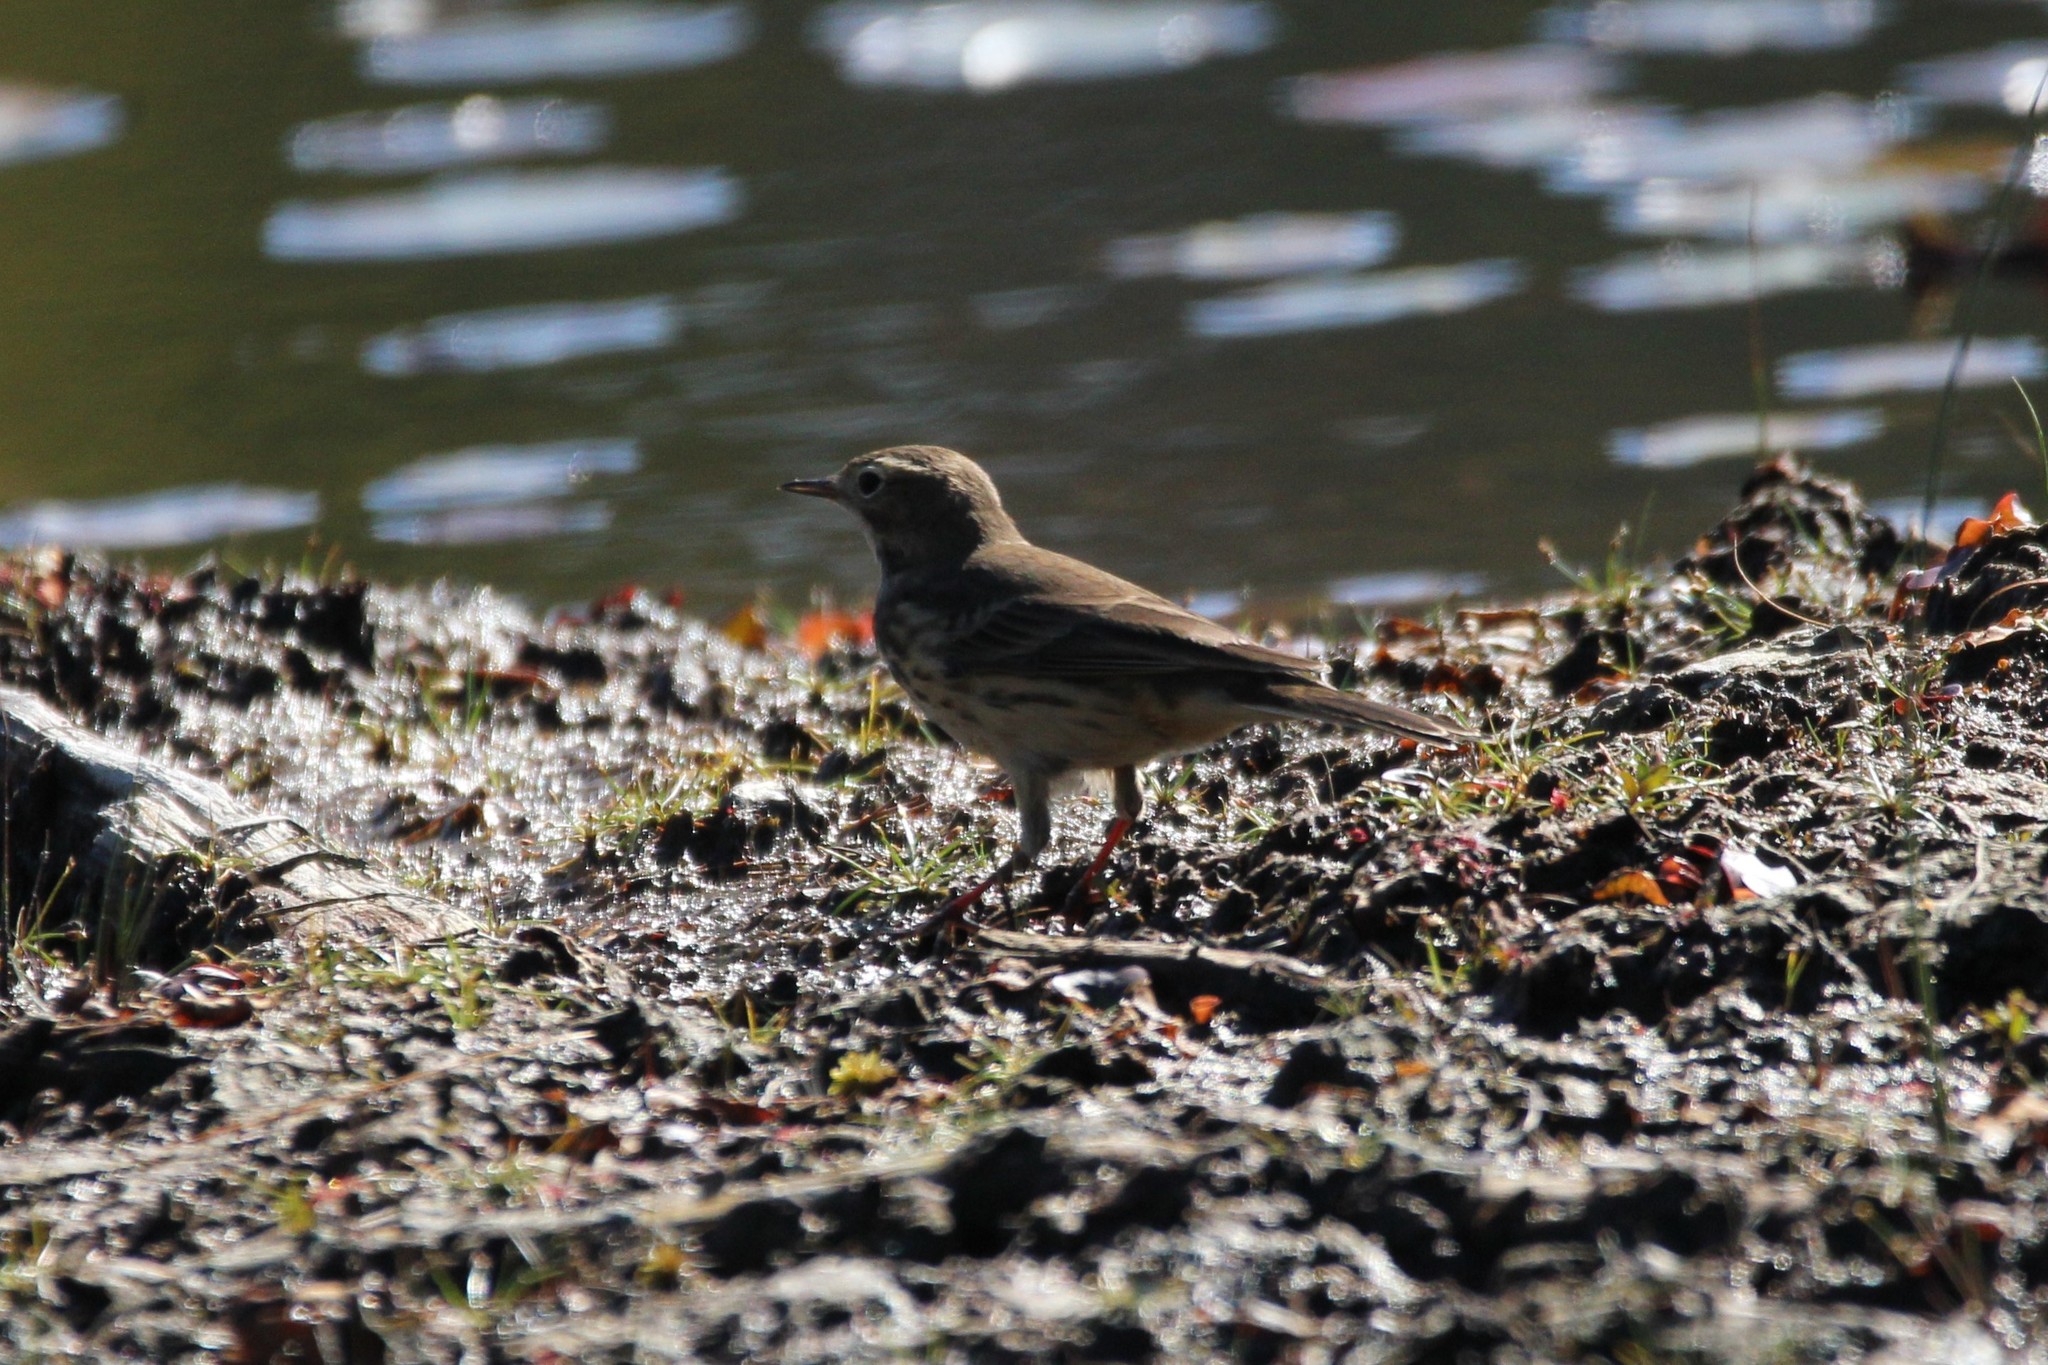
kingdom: Animalia
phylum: Chordata
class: Aves
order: Passeriformes
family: Motacillidae
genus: Anthus
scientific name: Anthus rubescens
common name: Buff-bellied pipit
